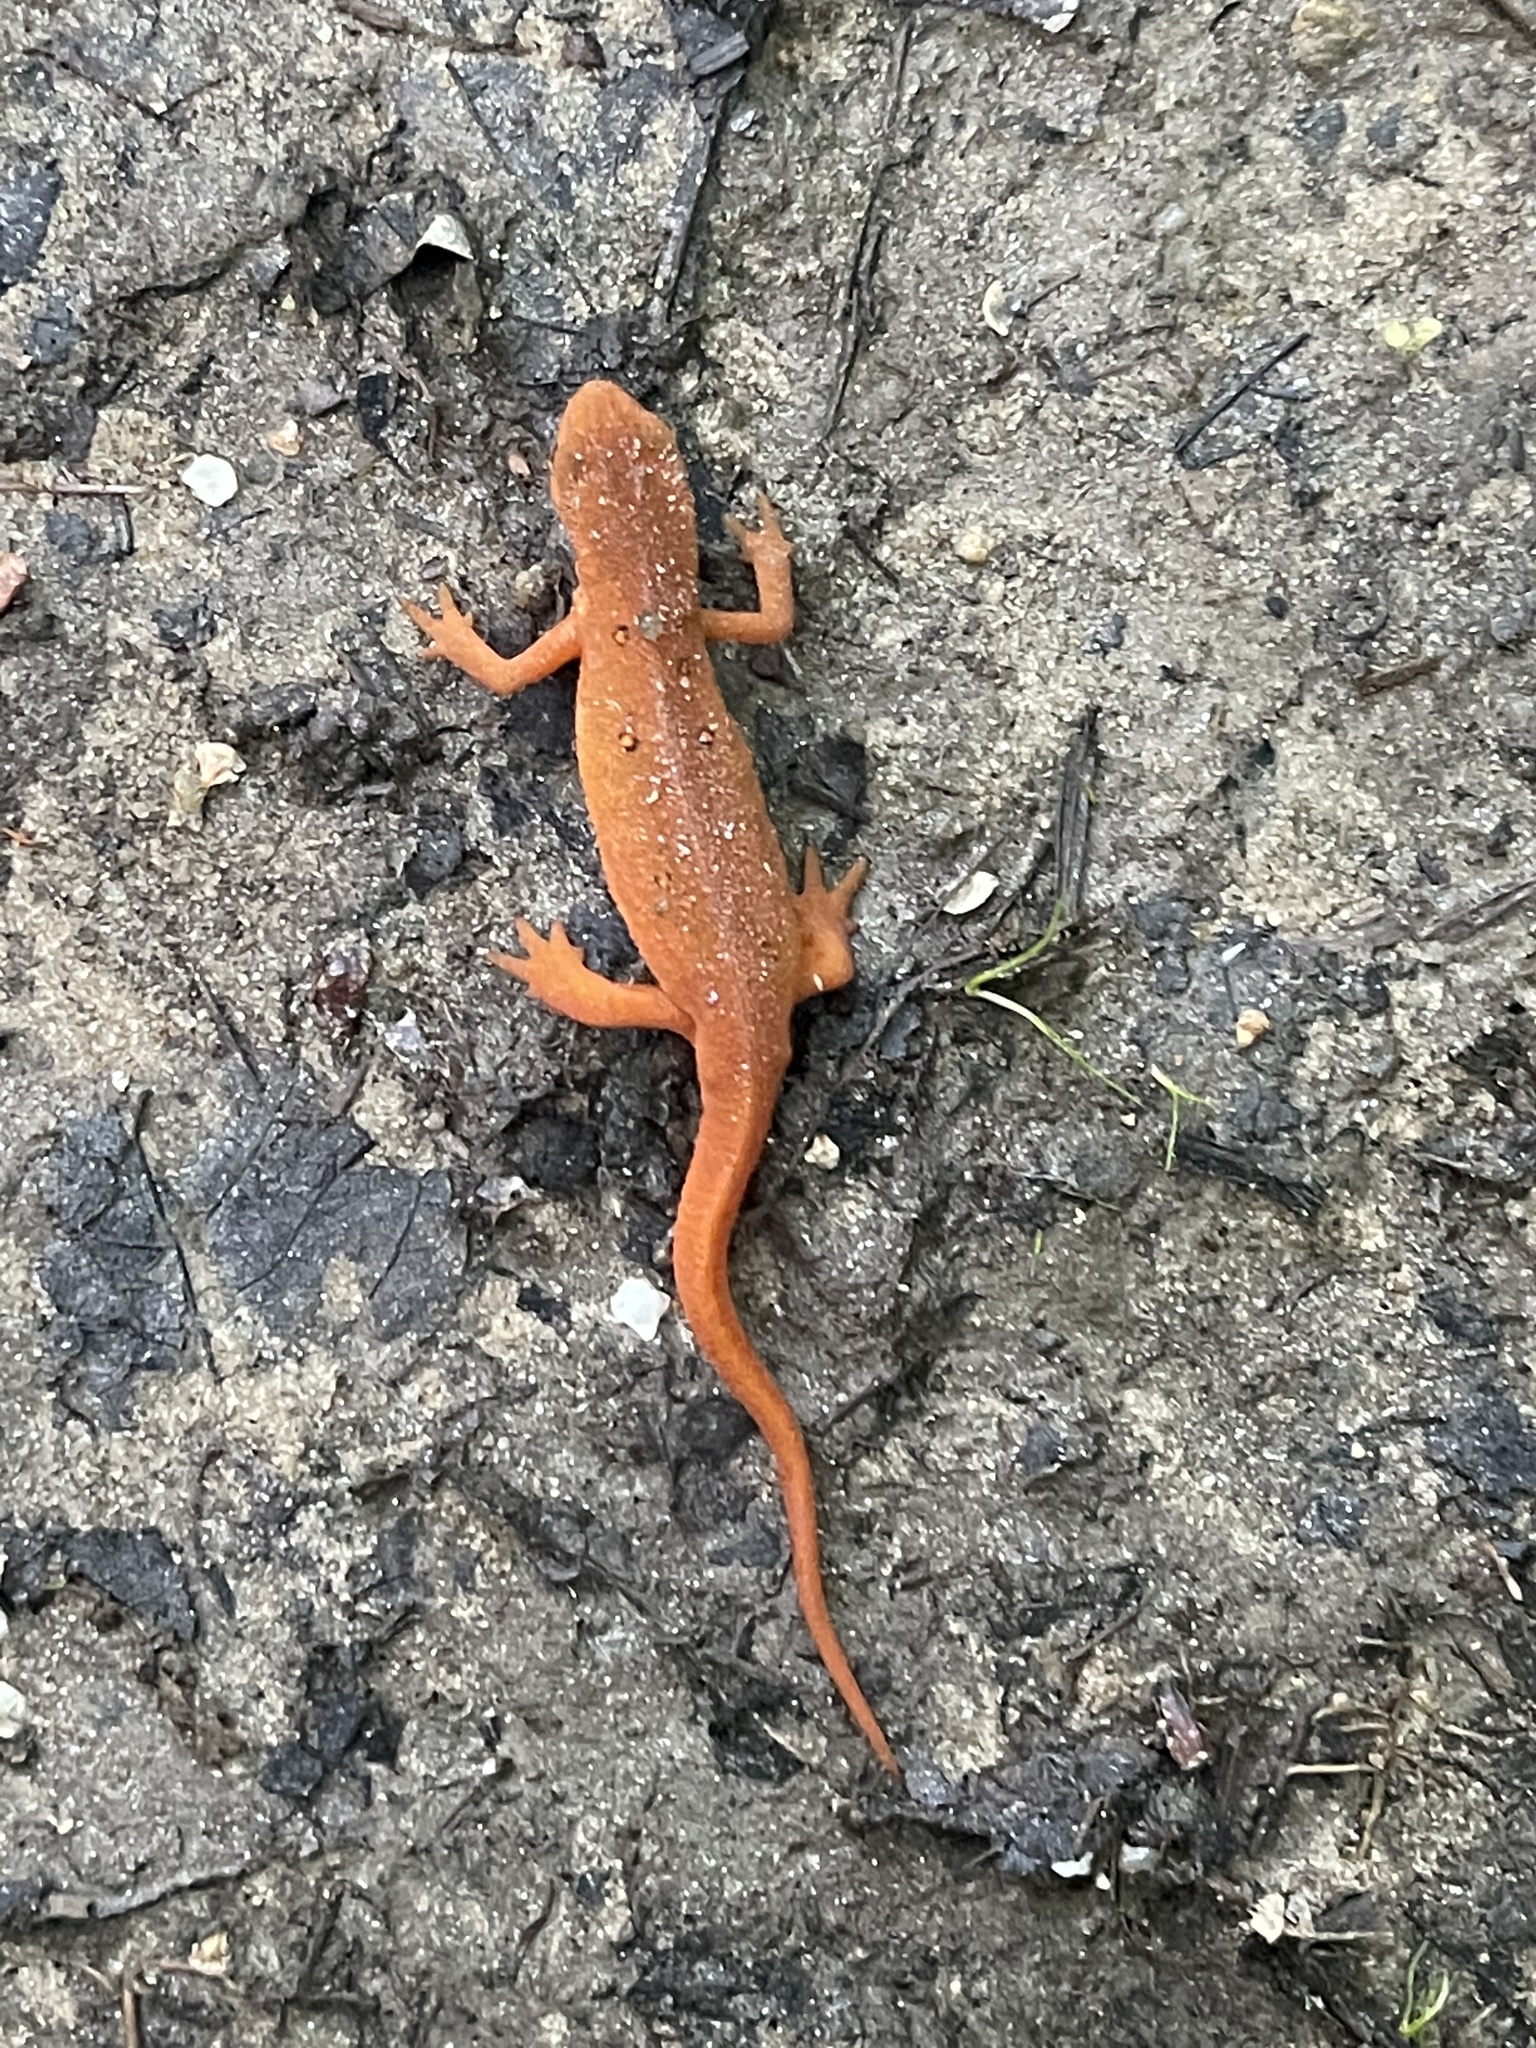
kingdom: Animalia
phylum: Chordata
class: Amphibia
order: Caudata
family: Salamandridae
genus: Notophthalmus
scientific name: Notophthalmus viridescens
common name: Eastern newt
